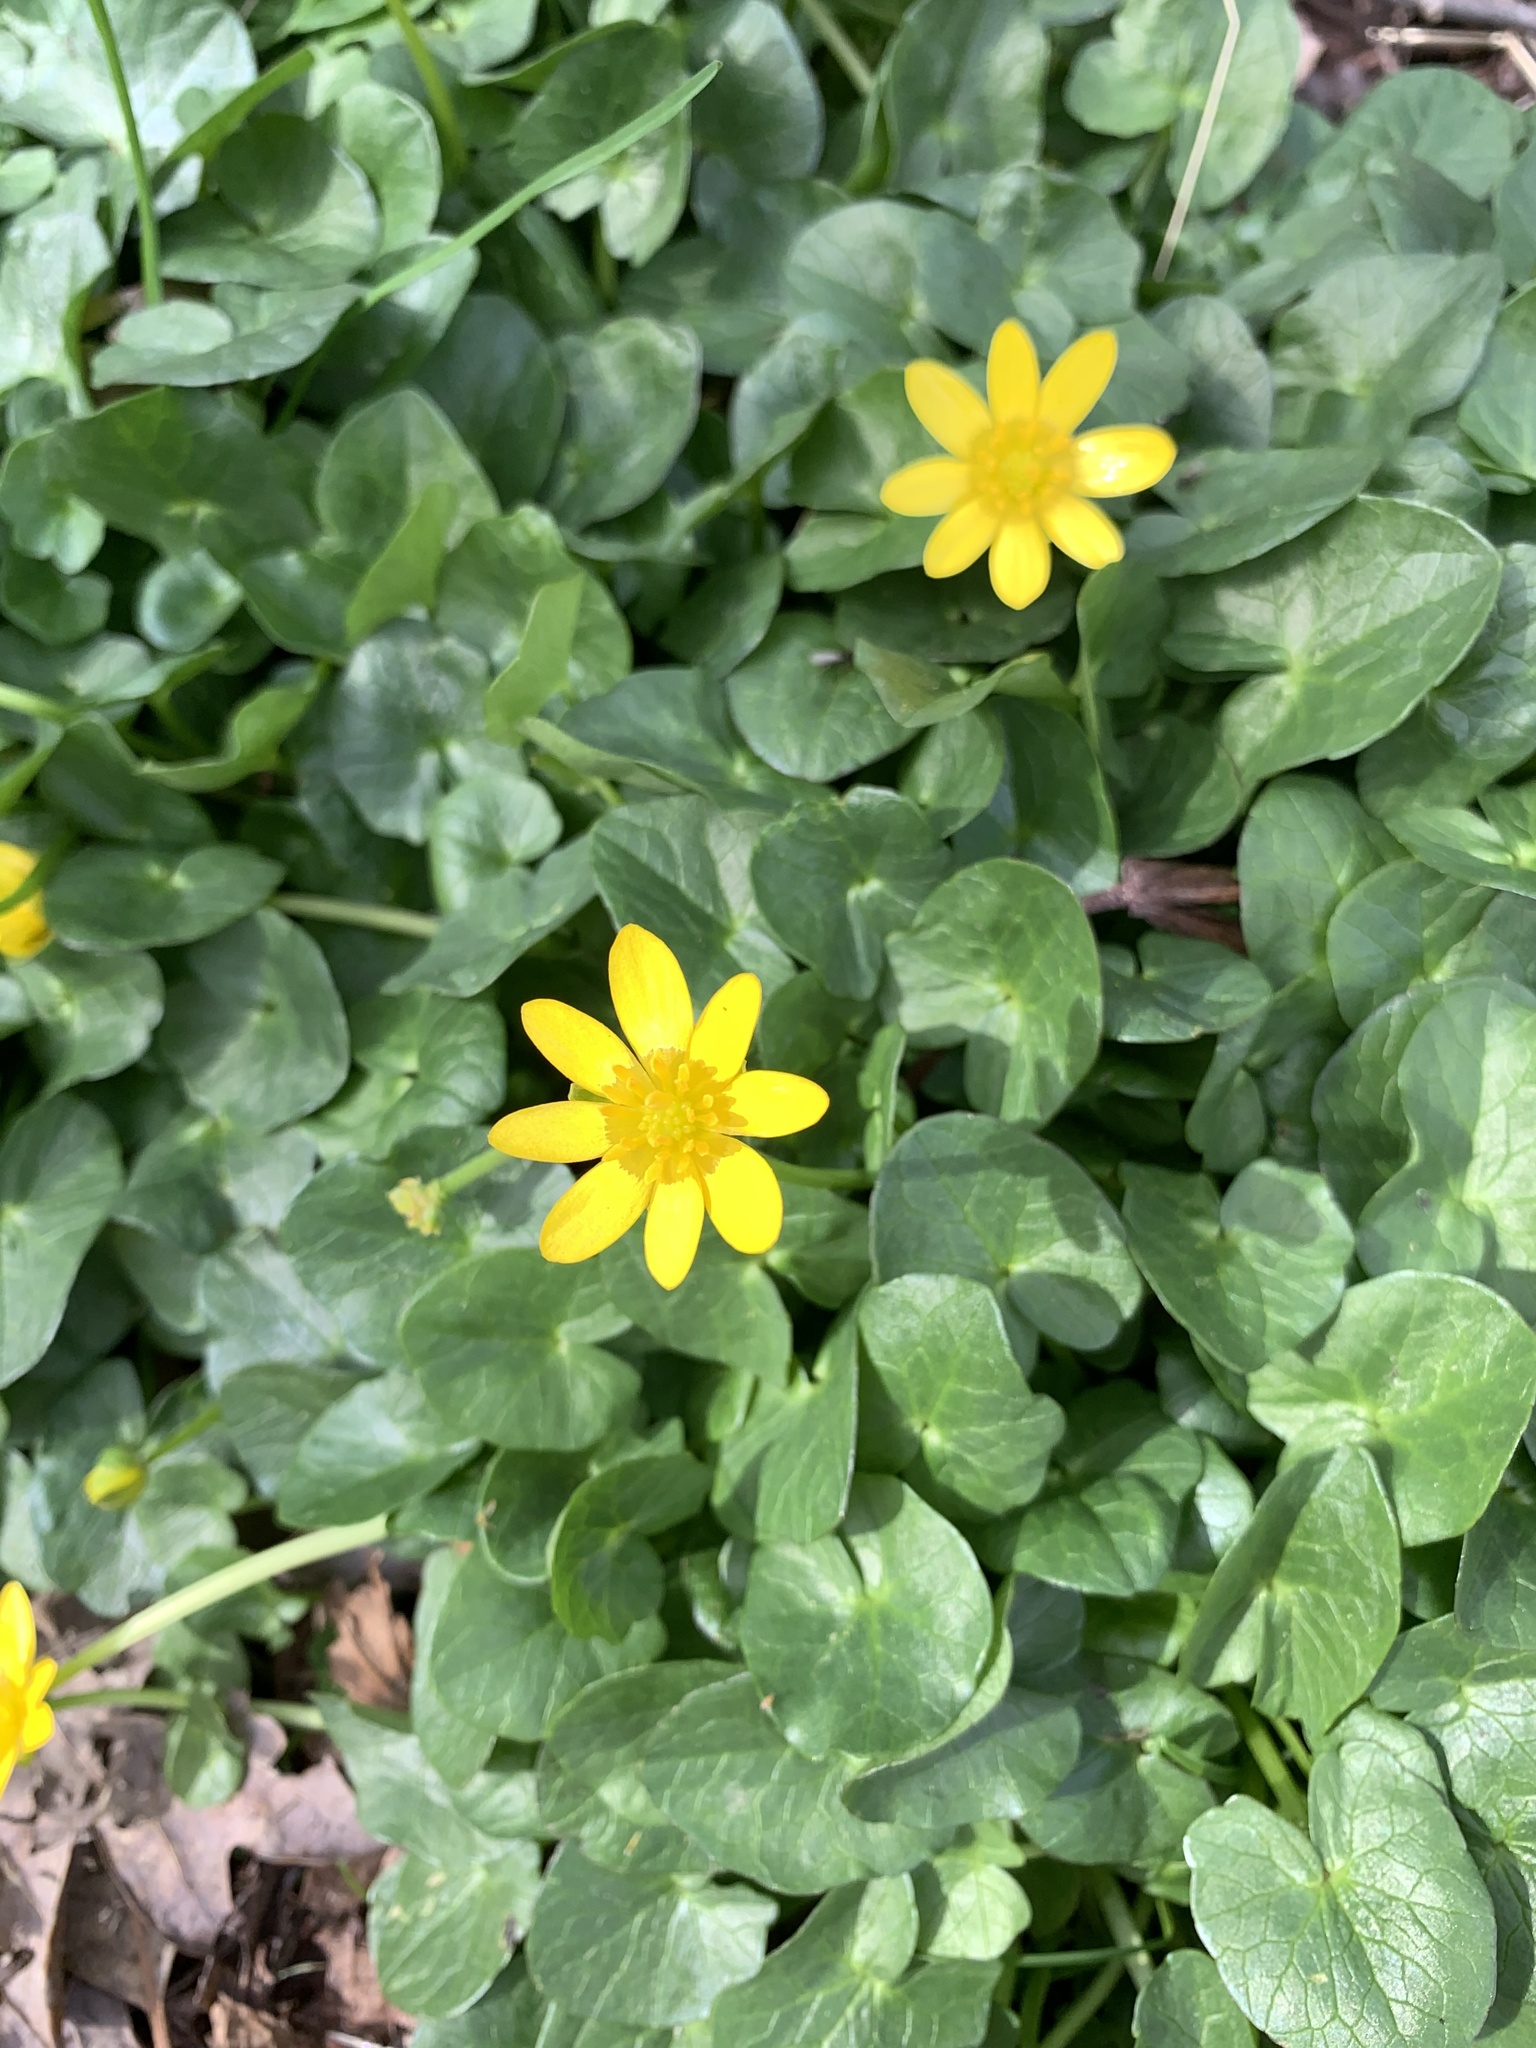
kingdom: Plantae
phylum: Tracheophyta
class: Magnoliopsida
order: Ranunculales
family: Ranunculaceae
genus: Ficaria
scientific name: Ficaria verna
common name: Lesser celandine
